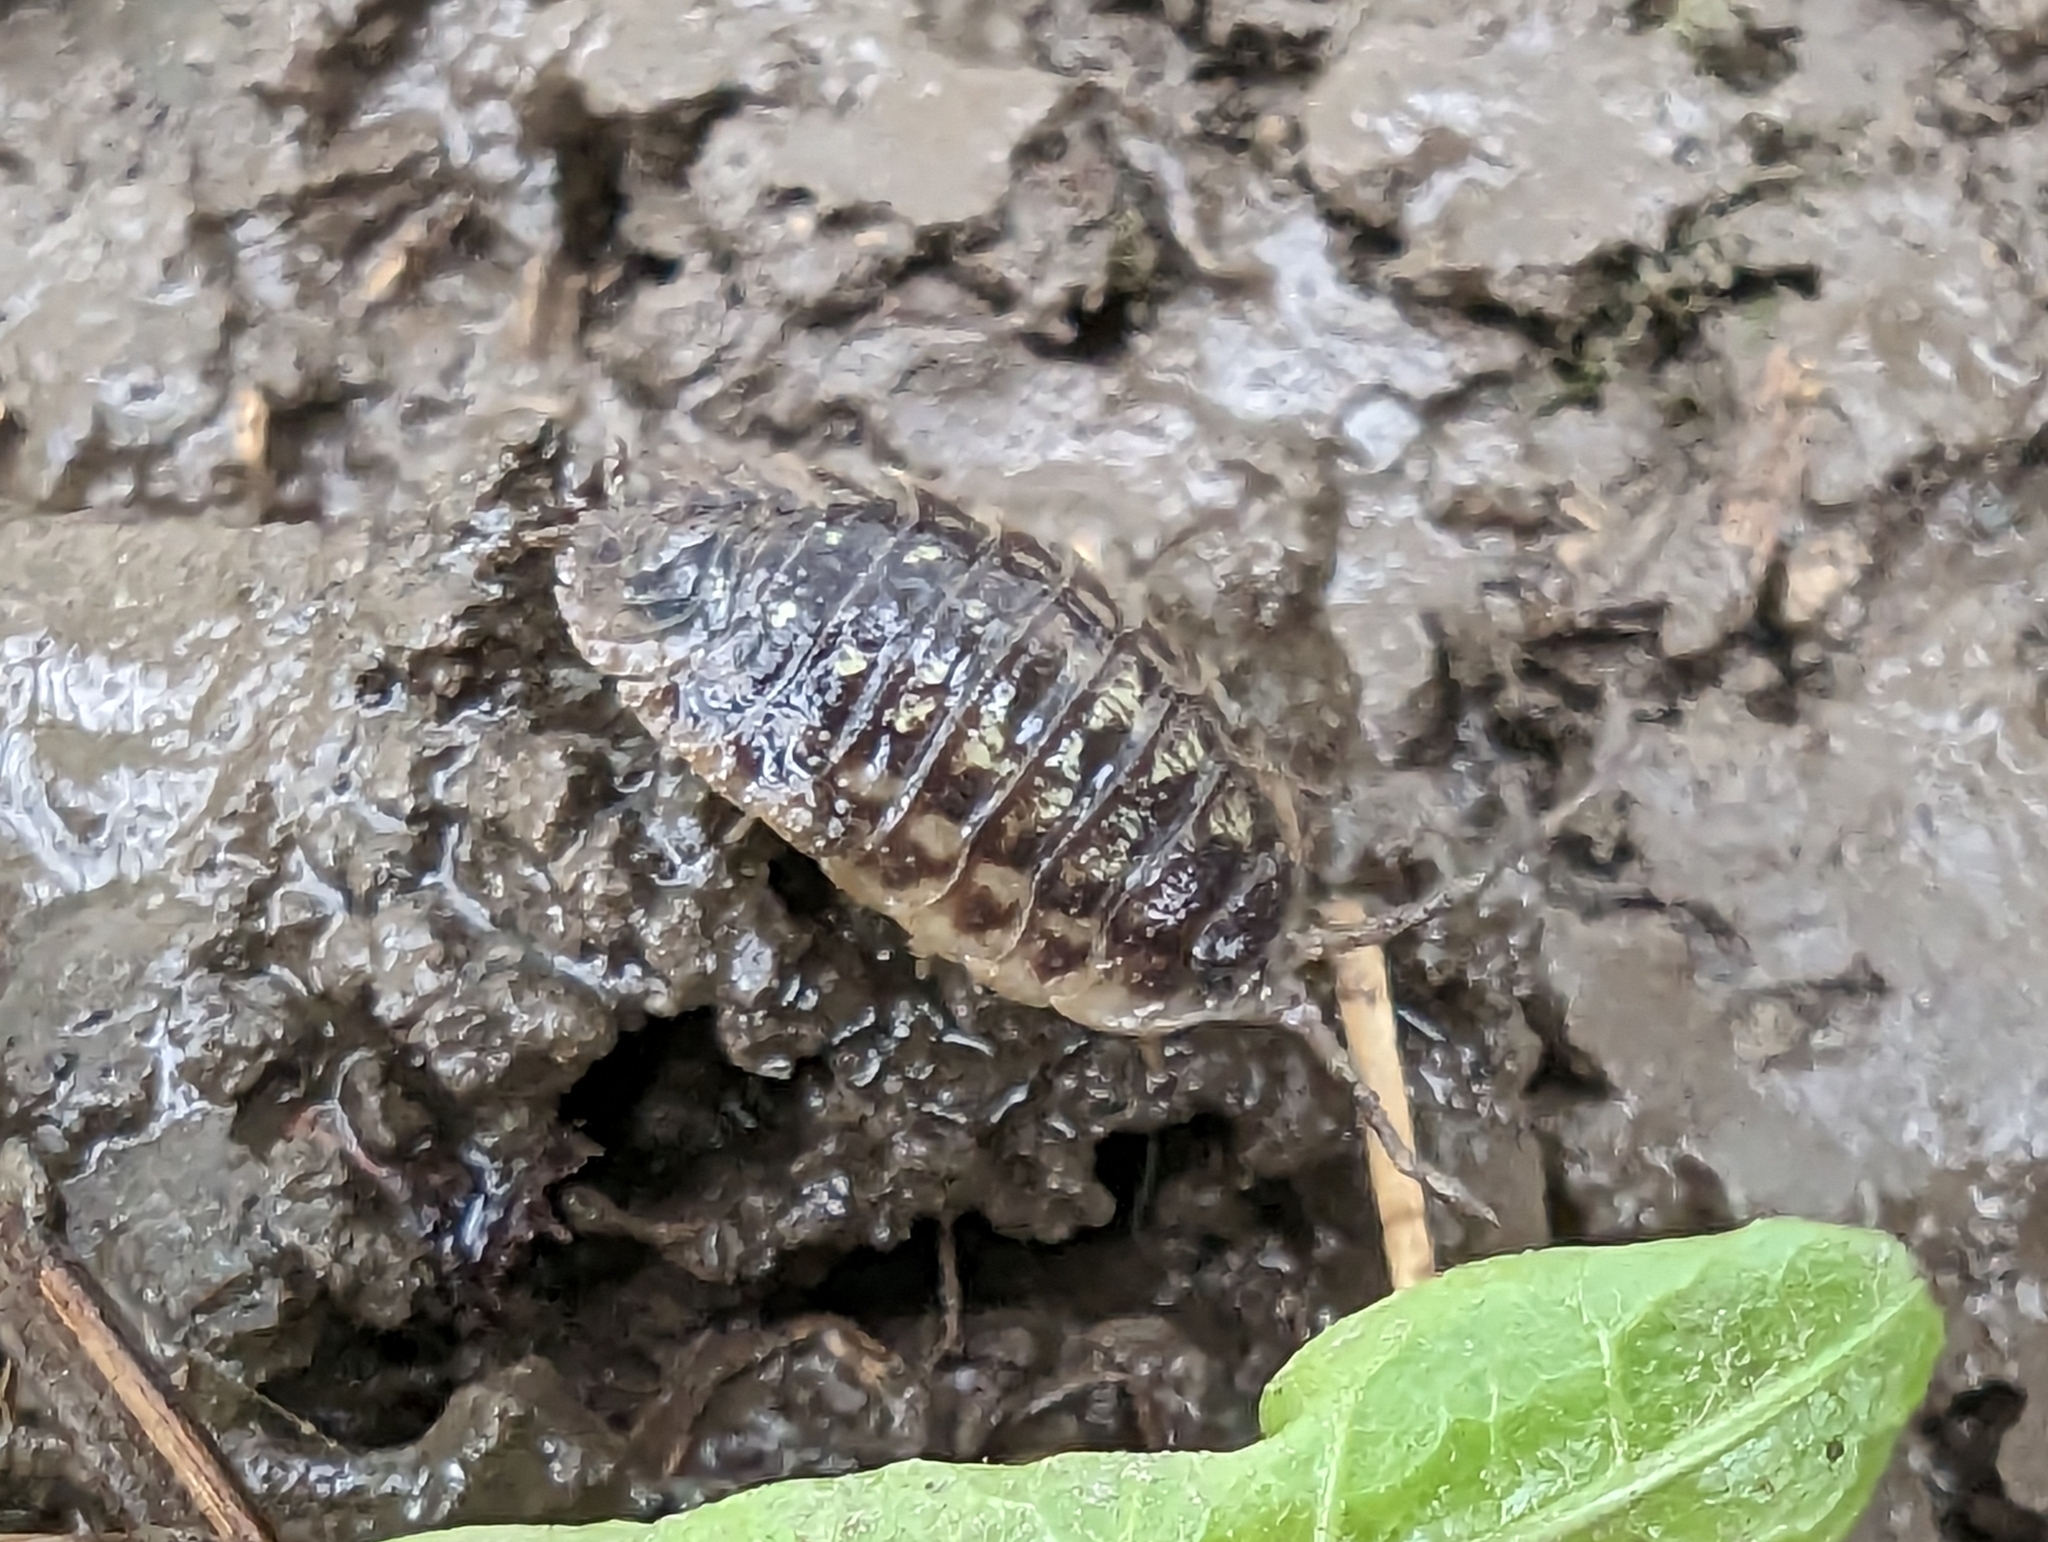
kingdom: Animalia
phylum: Arthropoda
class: Malacostraca
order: Isopoda
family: Oniscidae
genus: Oniscus
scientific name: Oniscus asellus
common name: Common shiny woodlouse
